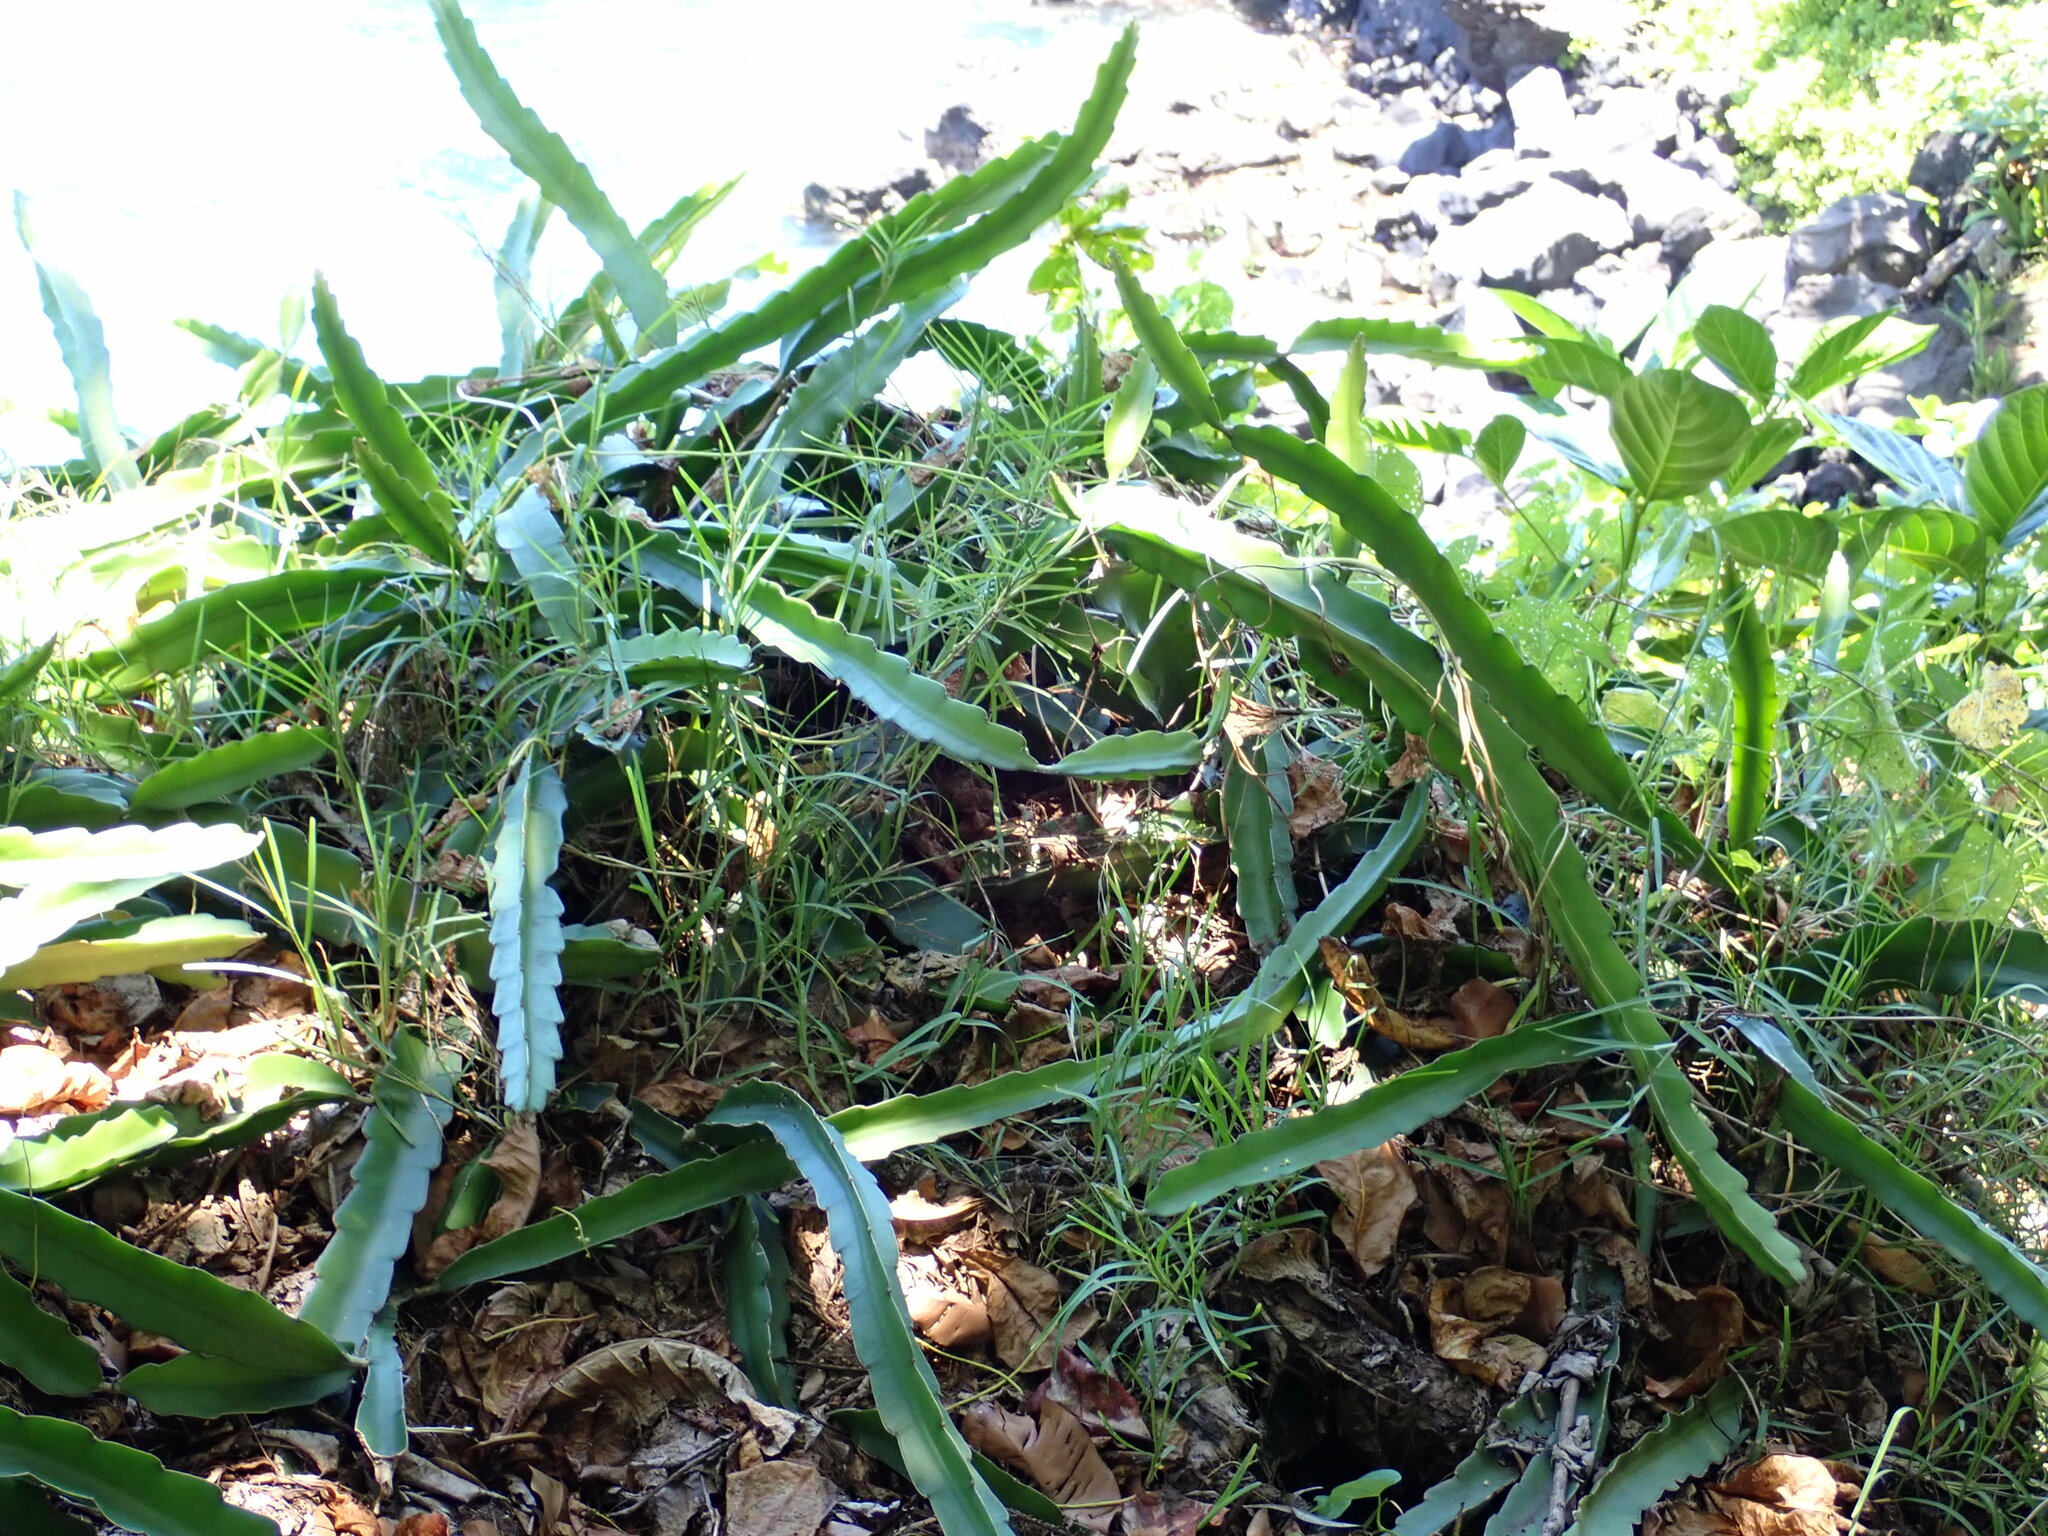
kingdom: Plantae
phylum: Tracheophyta
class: Magnoliopsida
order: Caryophyllales
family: Cactaceae
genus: Selenicereus
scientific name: Selenicereus undatus
